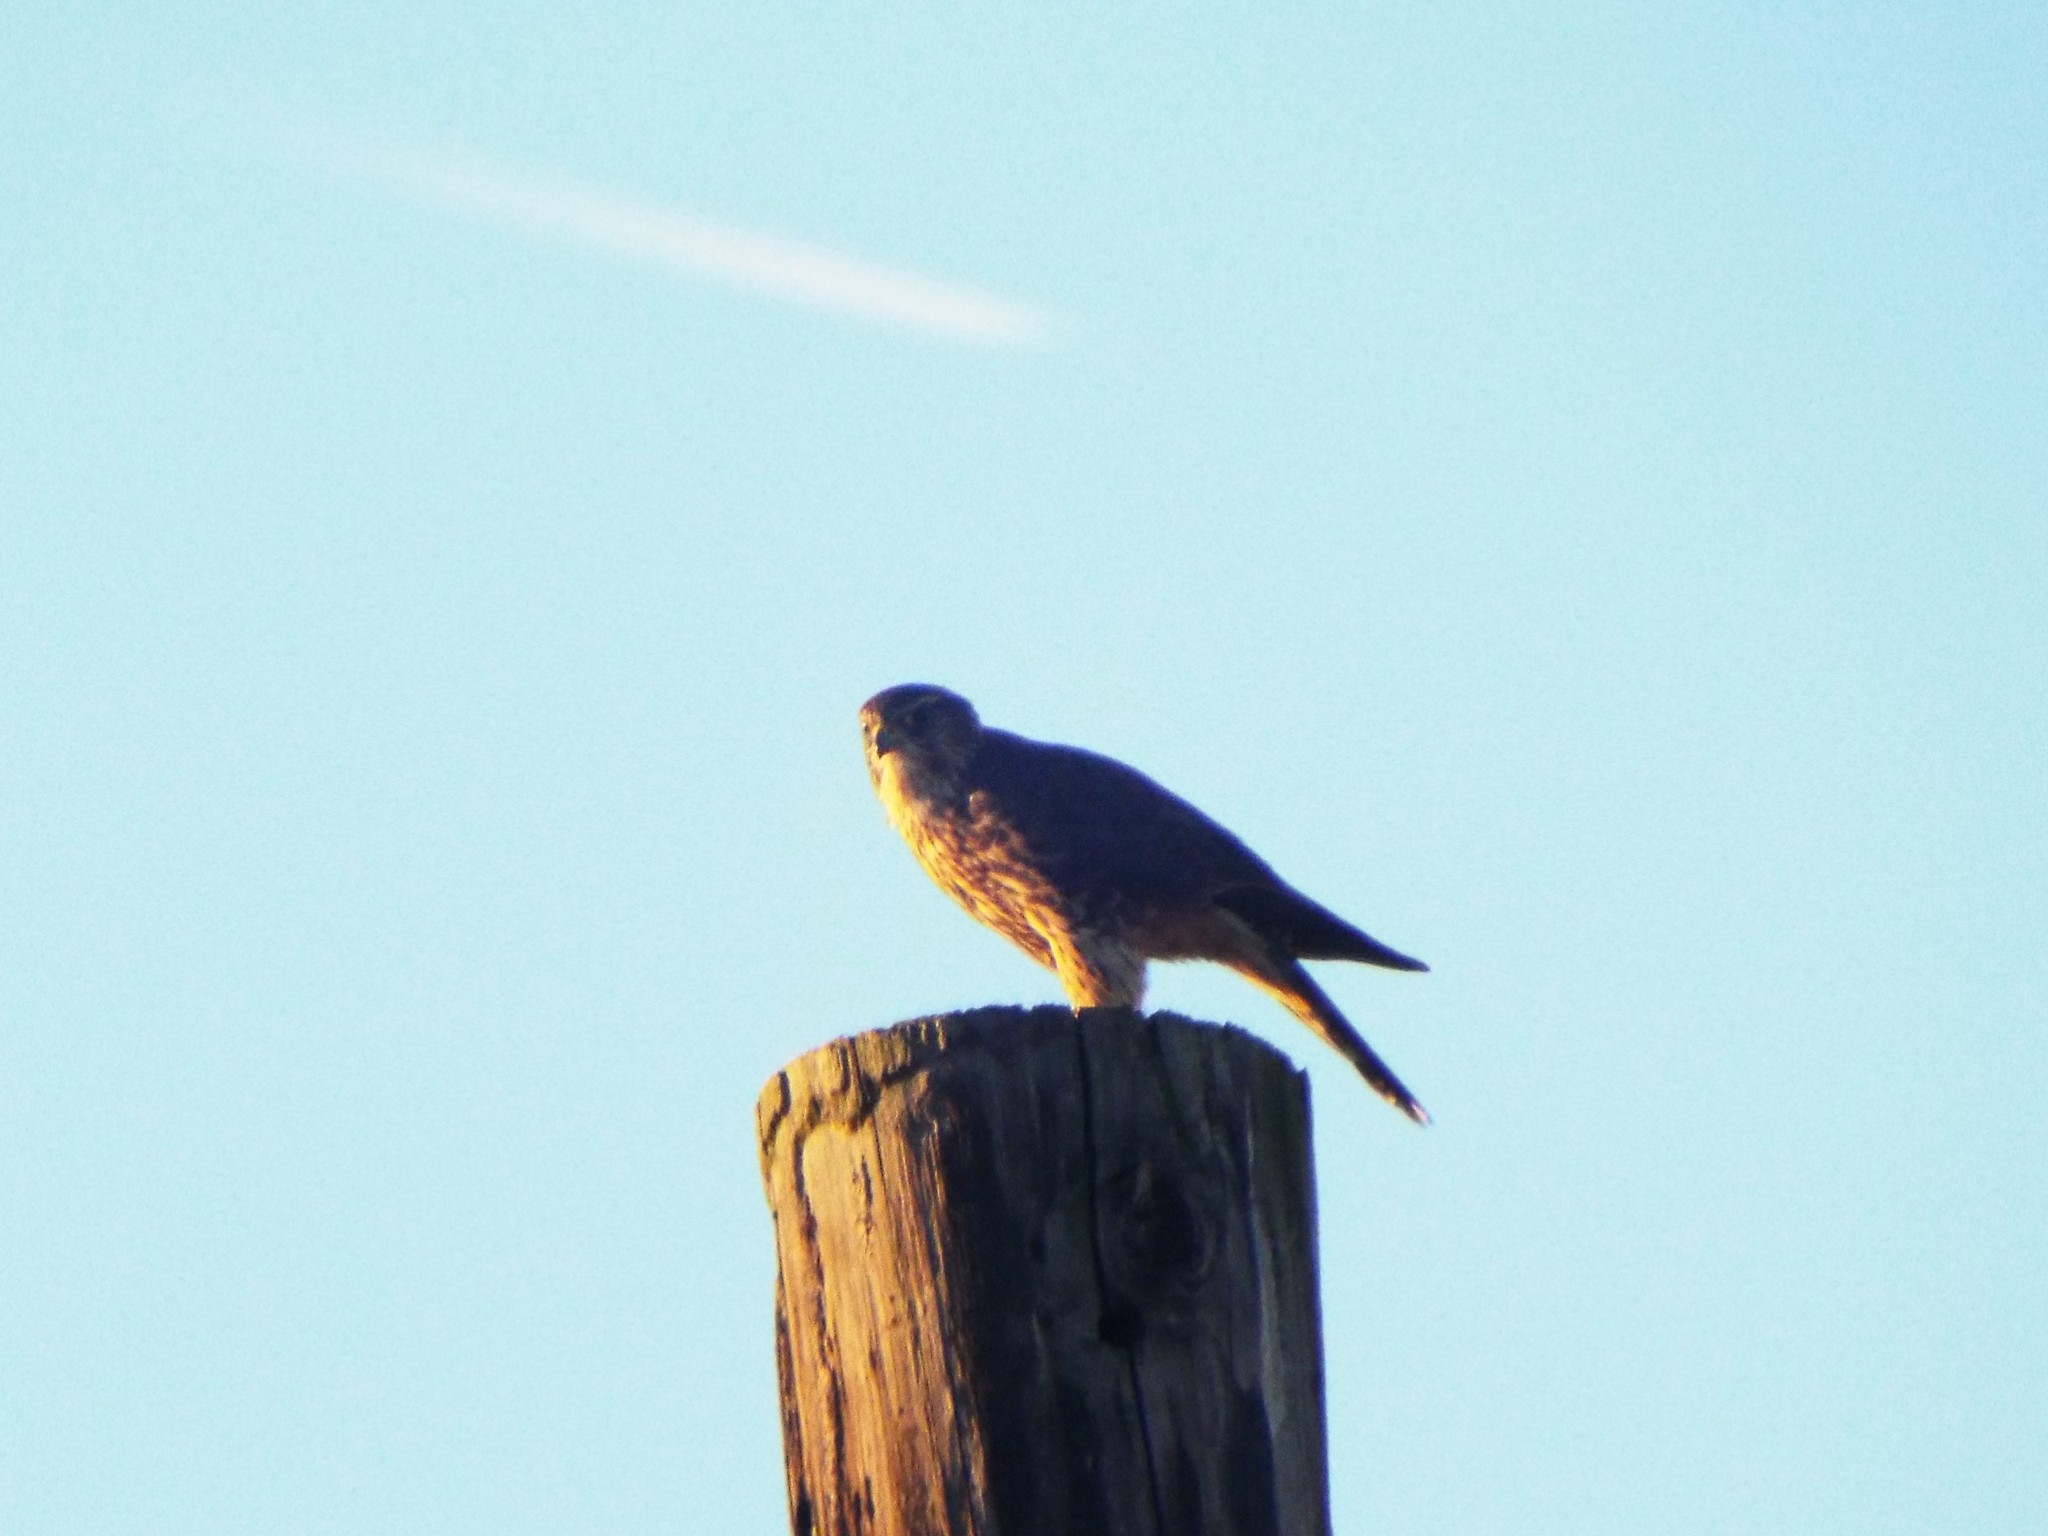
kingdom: Animalia
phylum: Chordata
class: Aves
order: Falconiformes
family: Falconidae
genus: Falco
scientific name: Falco columbarius
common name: Merlin
